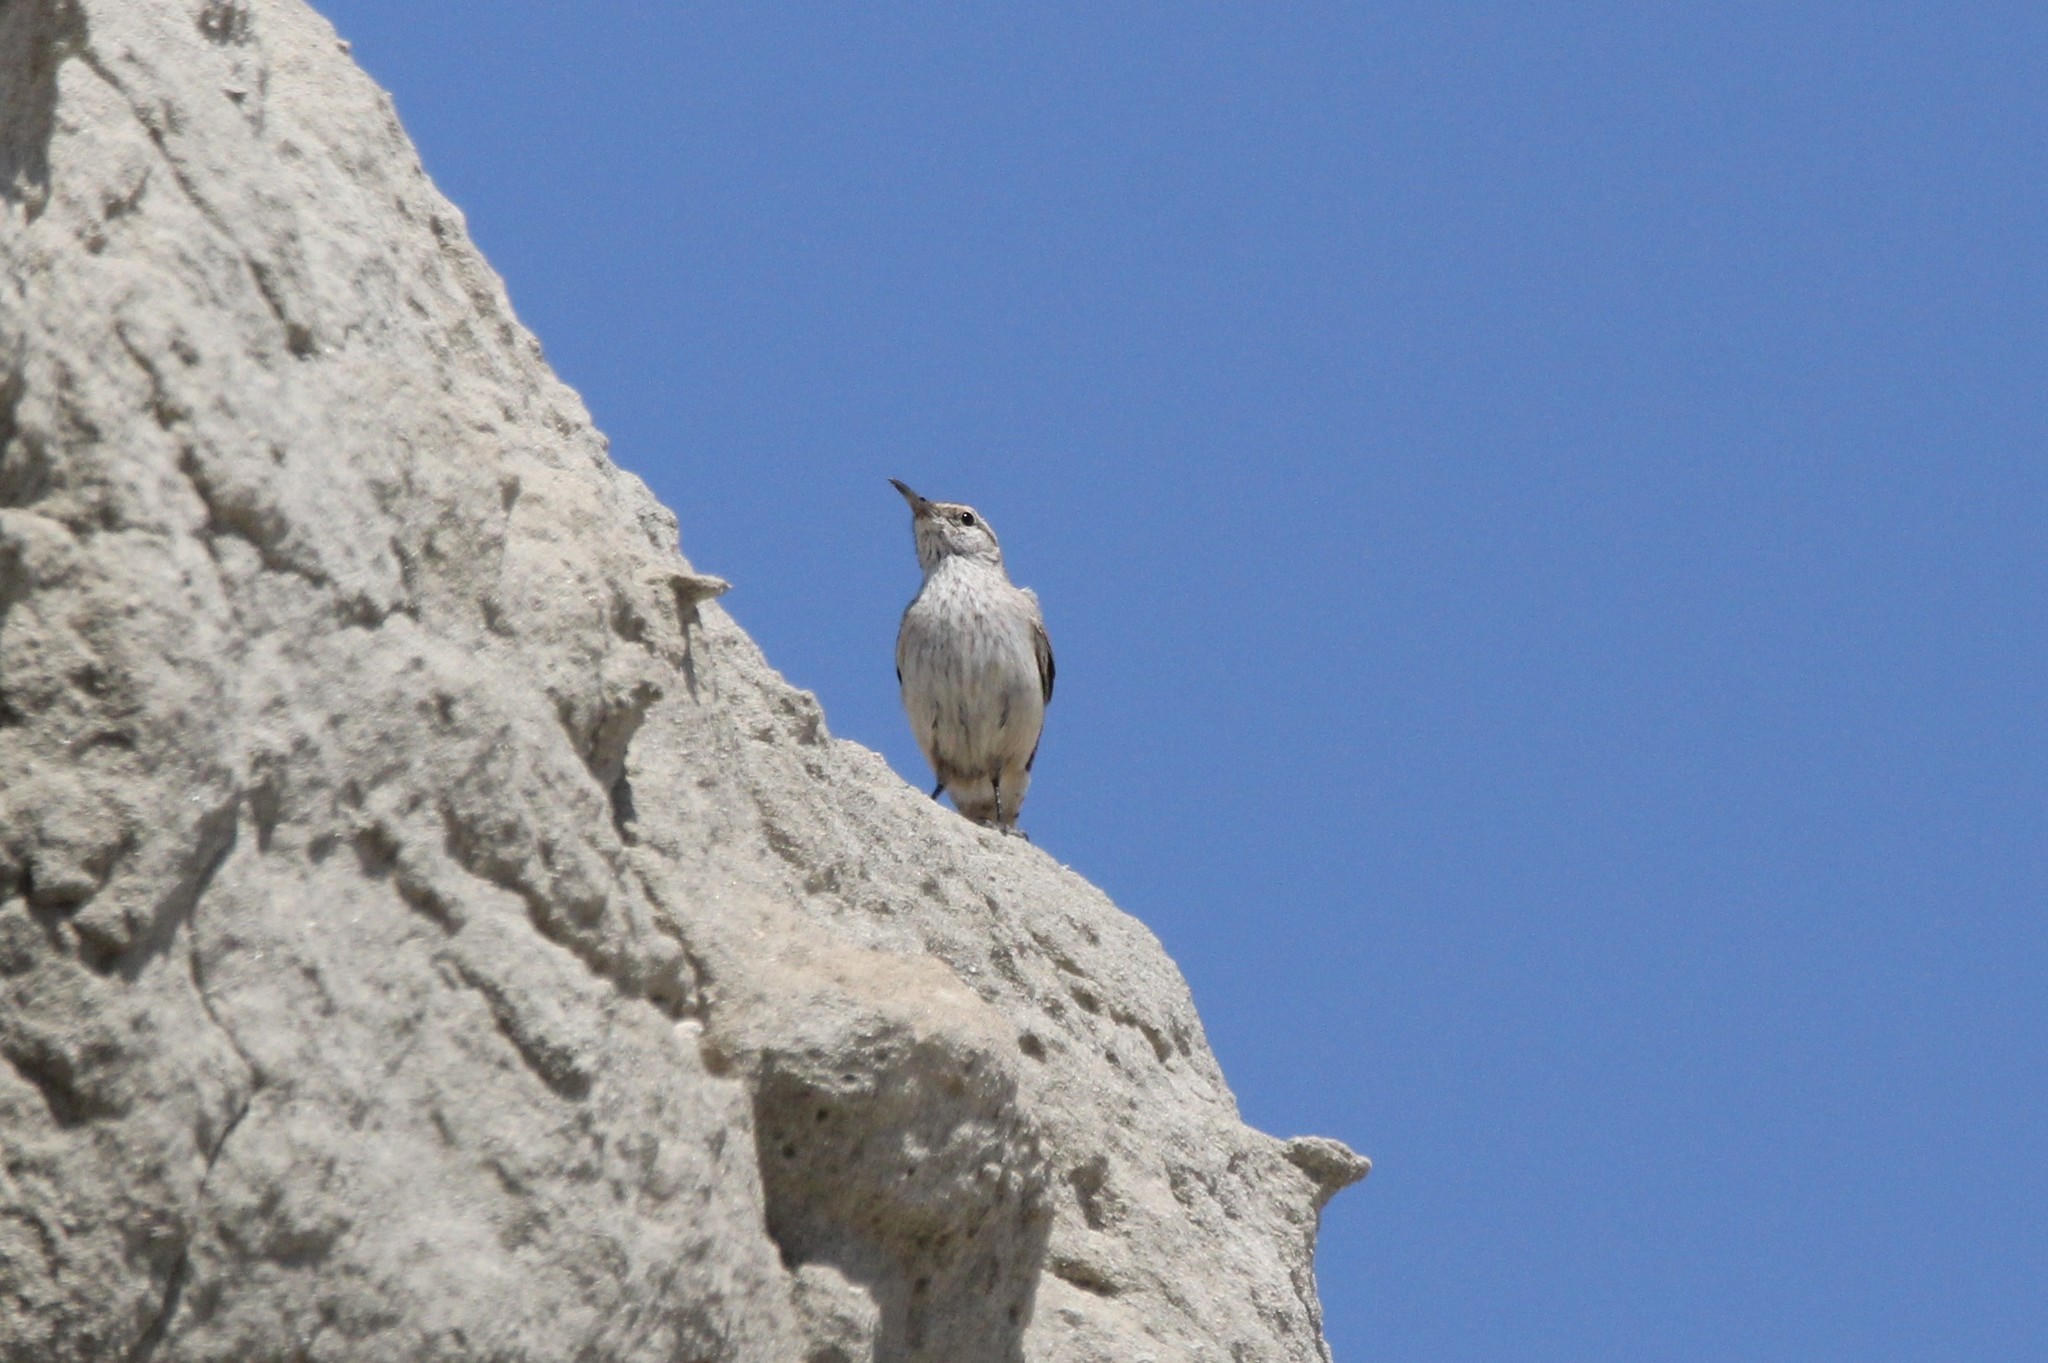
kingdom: Animalia
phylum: Chordata
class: Aves
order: Passeriformes
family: Troglodytidae
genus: Salpinctes
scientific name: Salpinctes obsoletus
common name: Rock wren
